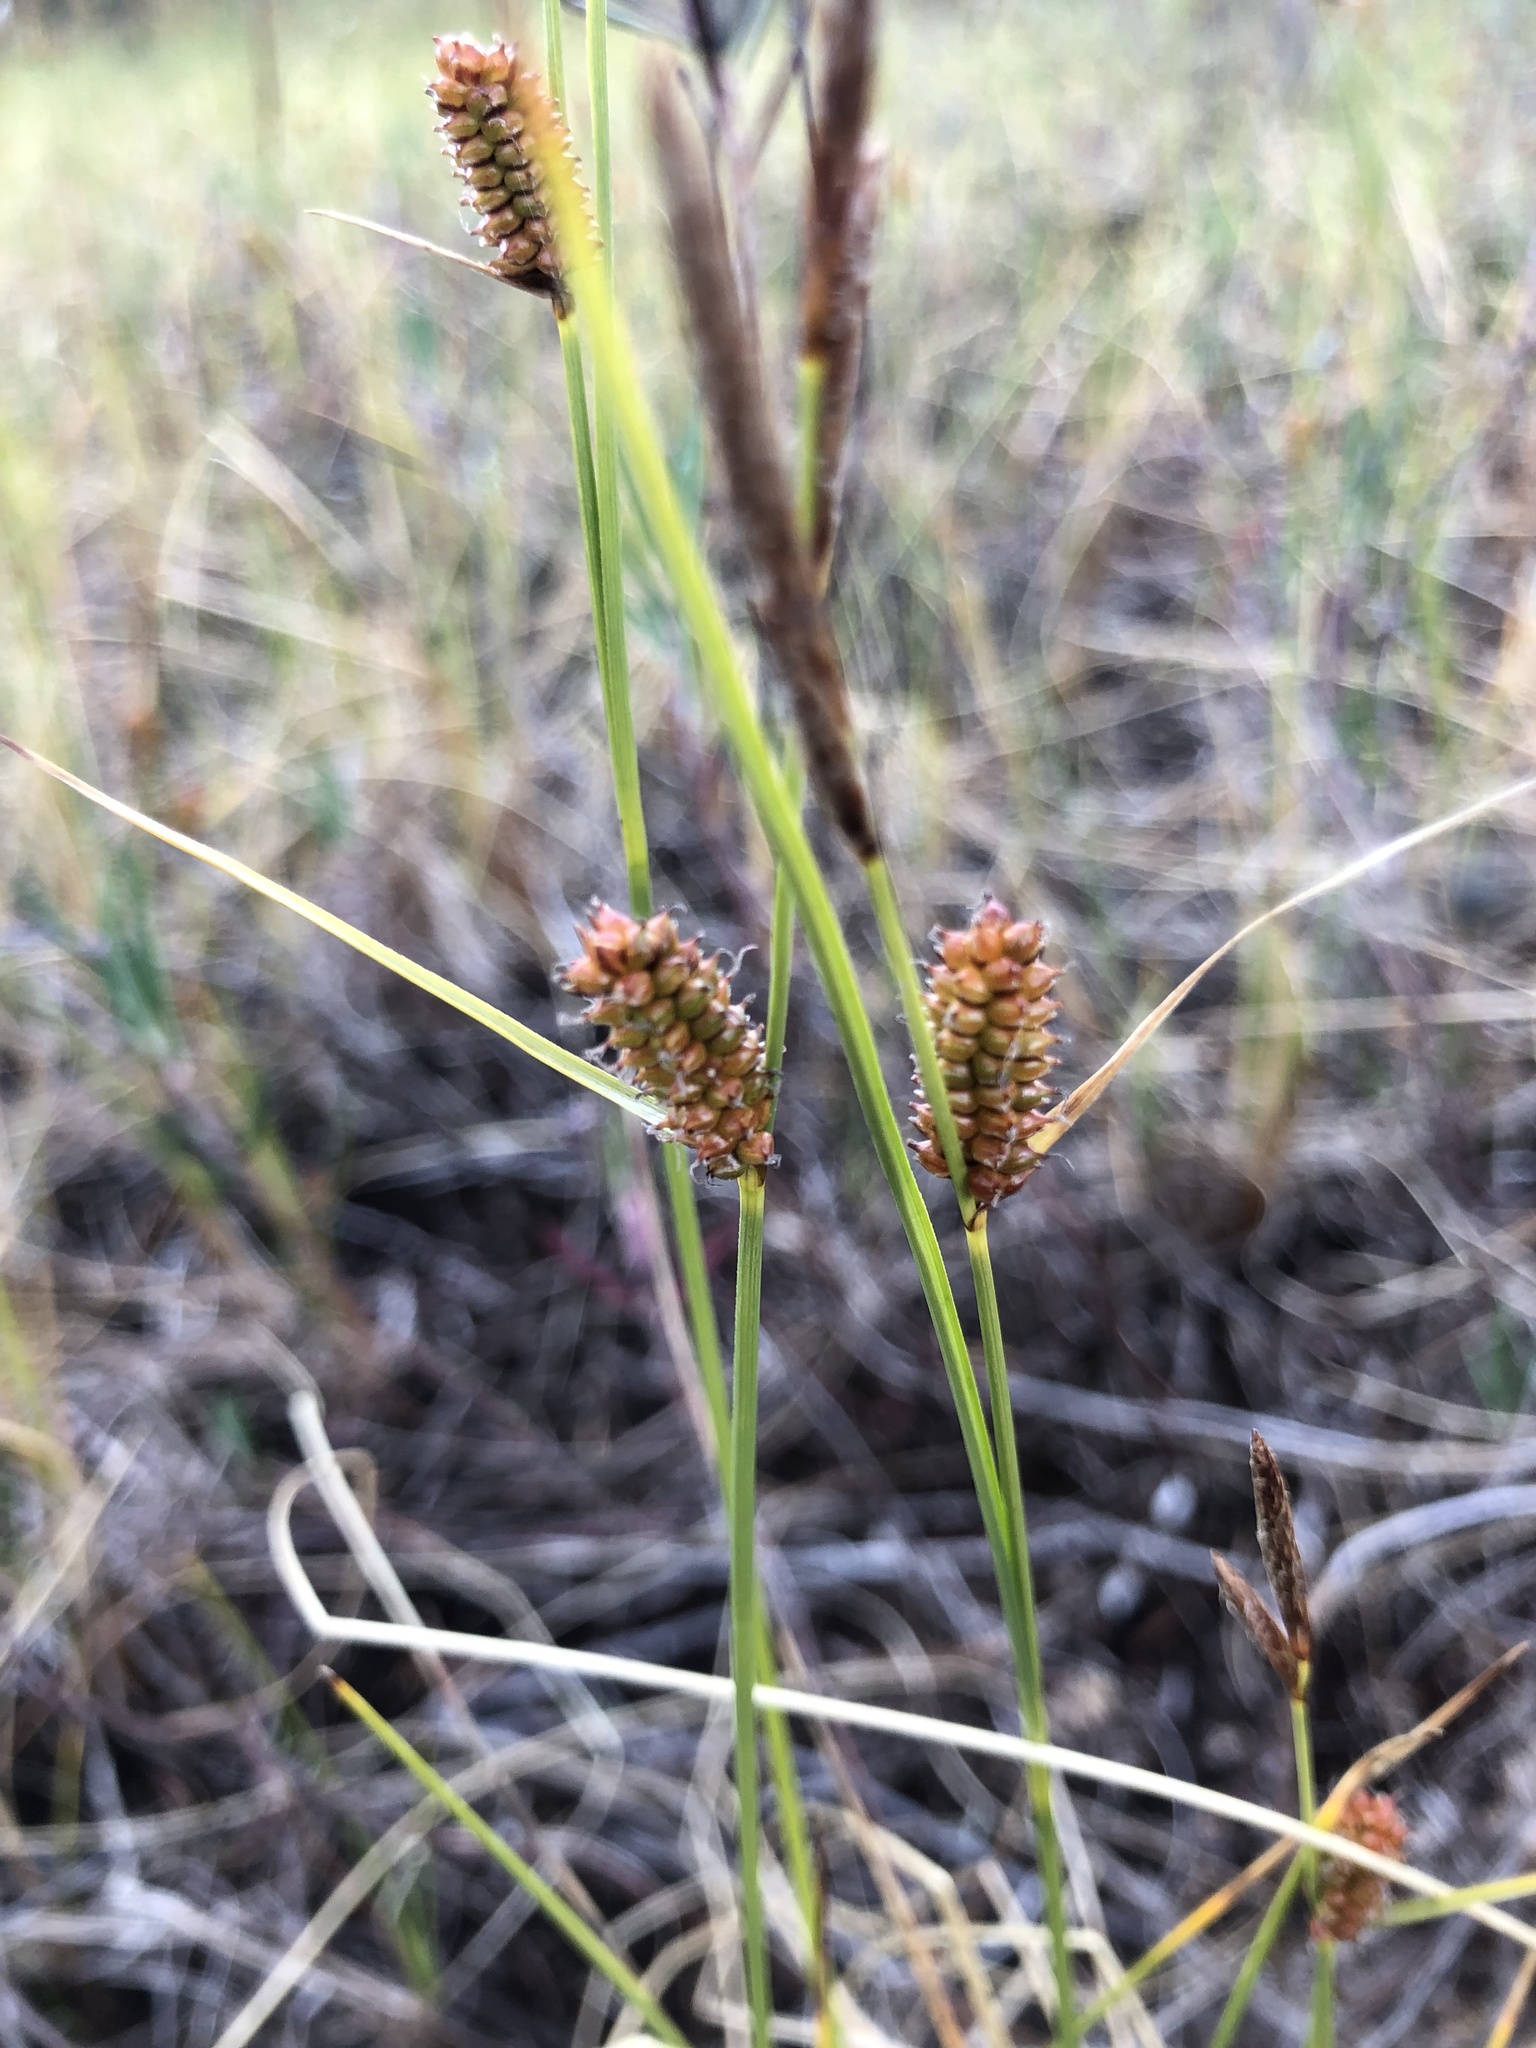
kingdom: Plantae
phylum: Tracheophyta
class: Liliopsida
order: Poales
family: Cyperaceae
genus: Carex
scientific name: Carex rotundata
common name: Round-fruited sedge
